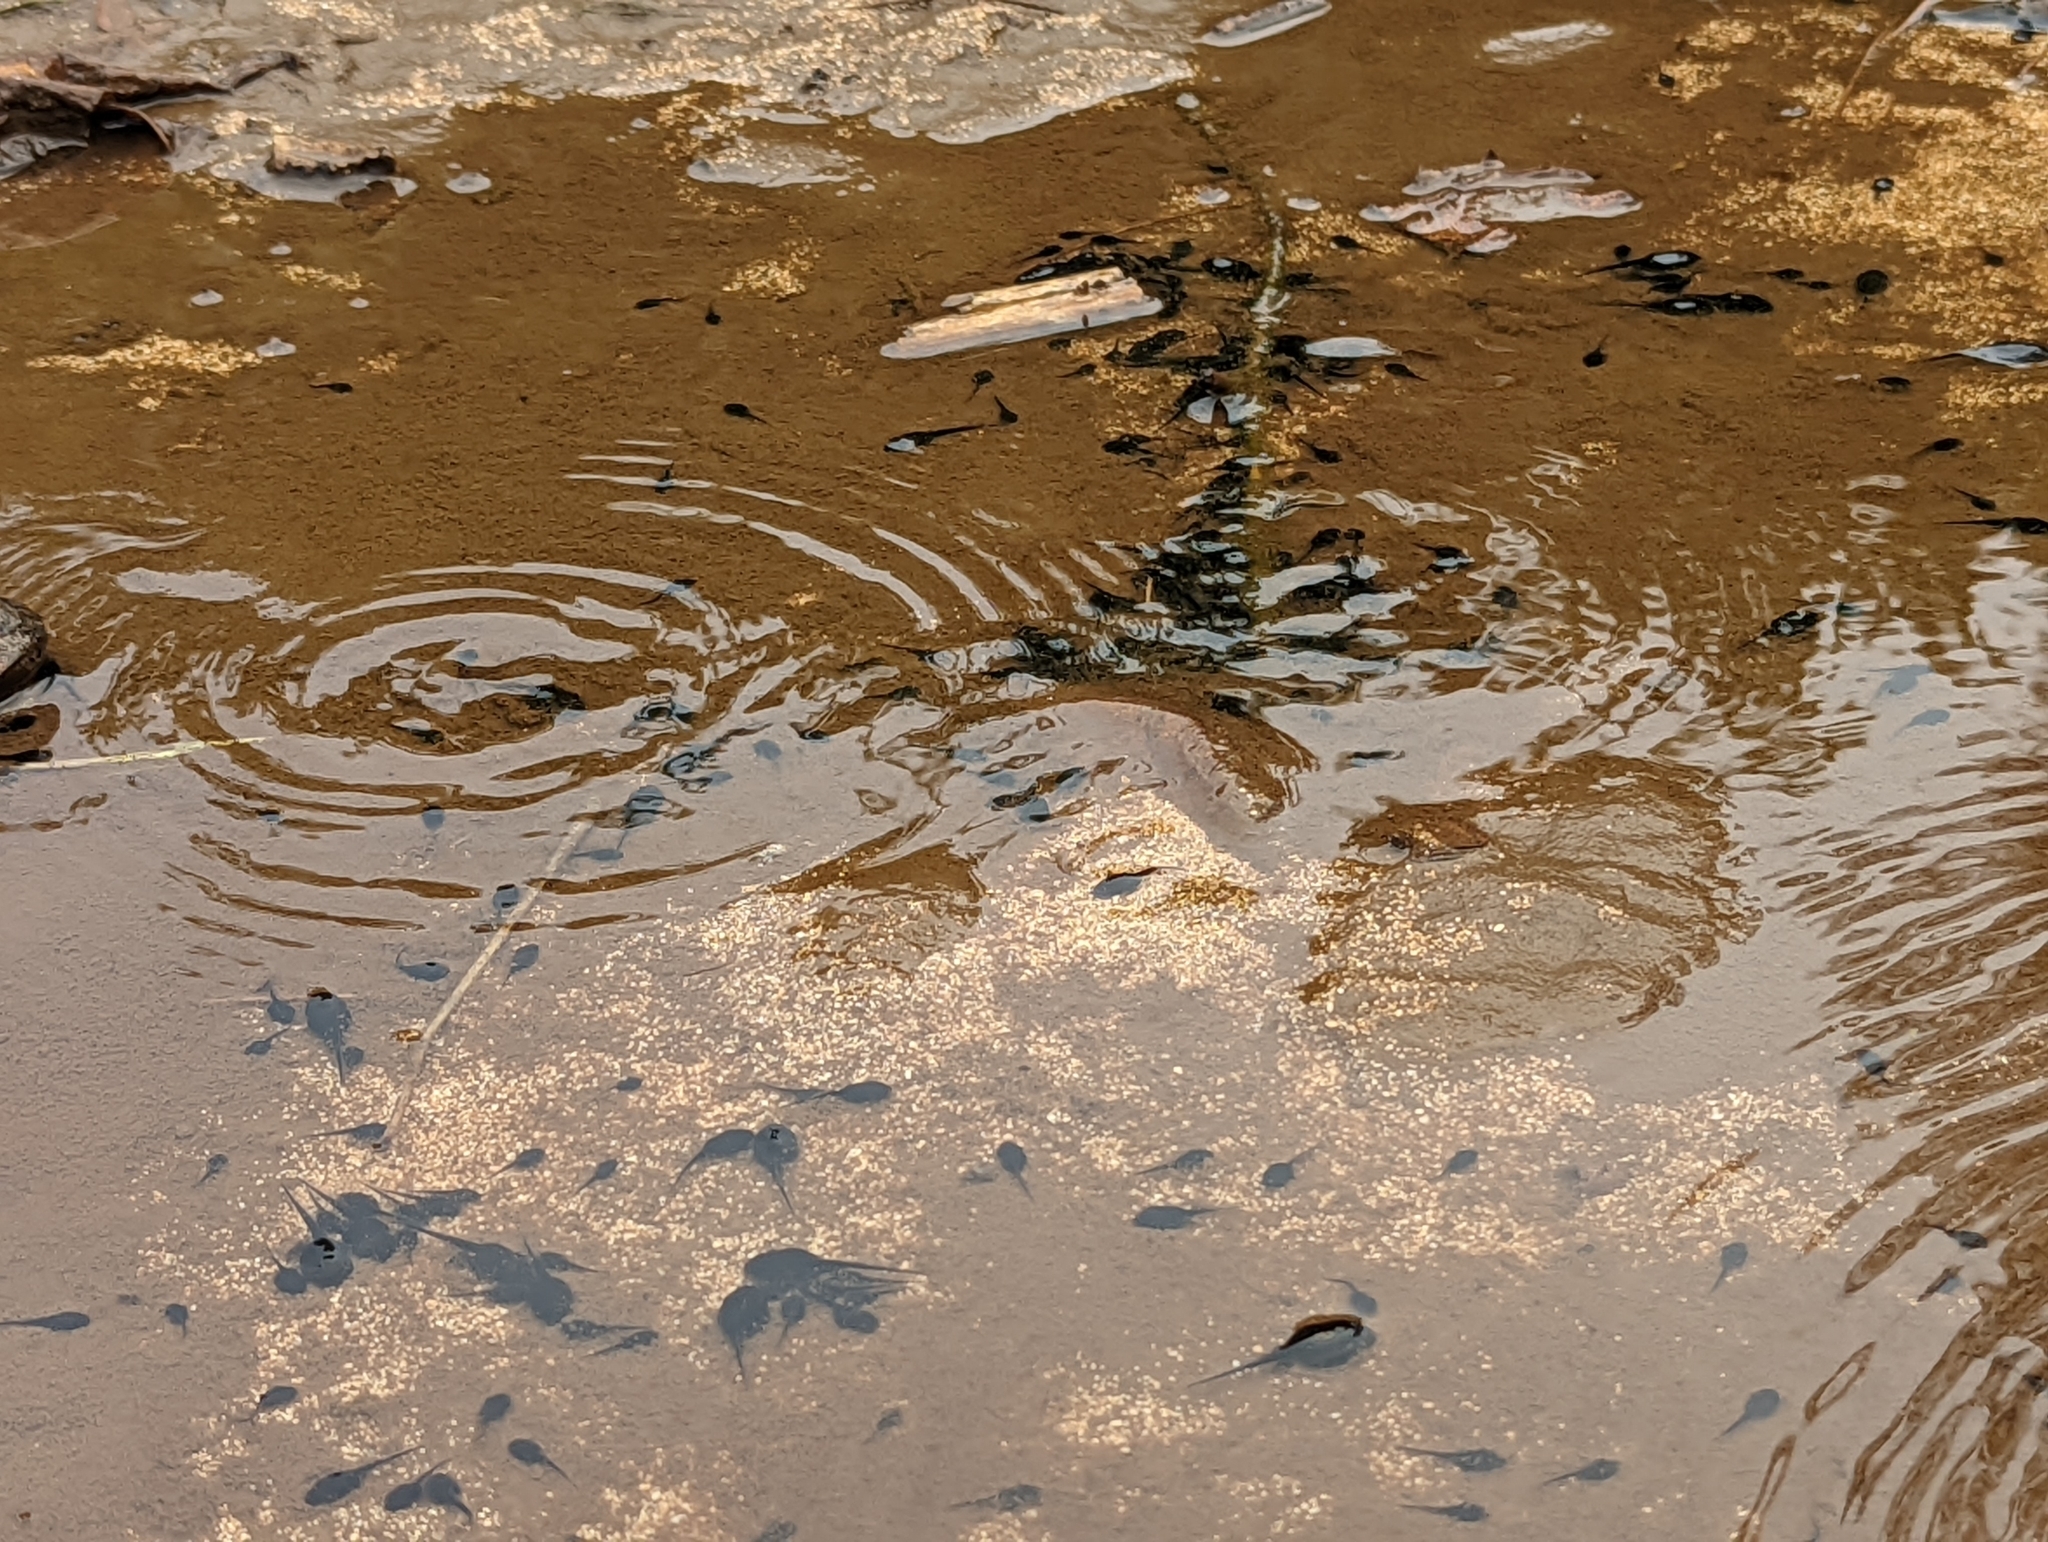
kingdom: Animalia
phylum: Chordata
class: Amphibia
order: Anura
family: Bufonidae
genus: Rhinella
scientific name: Rhinella marina
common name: Cane toad
